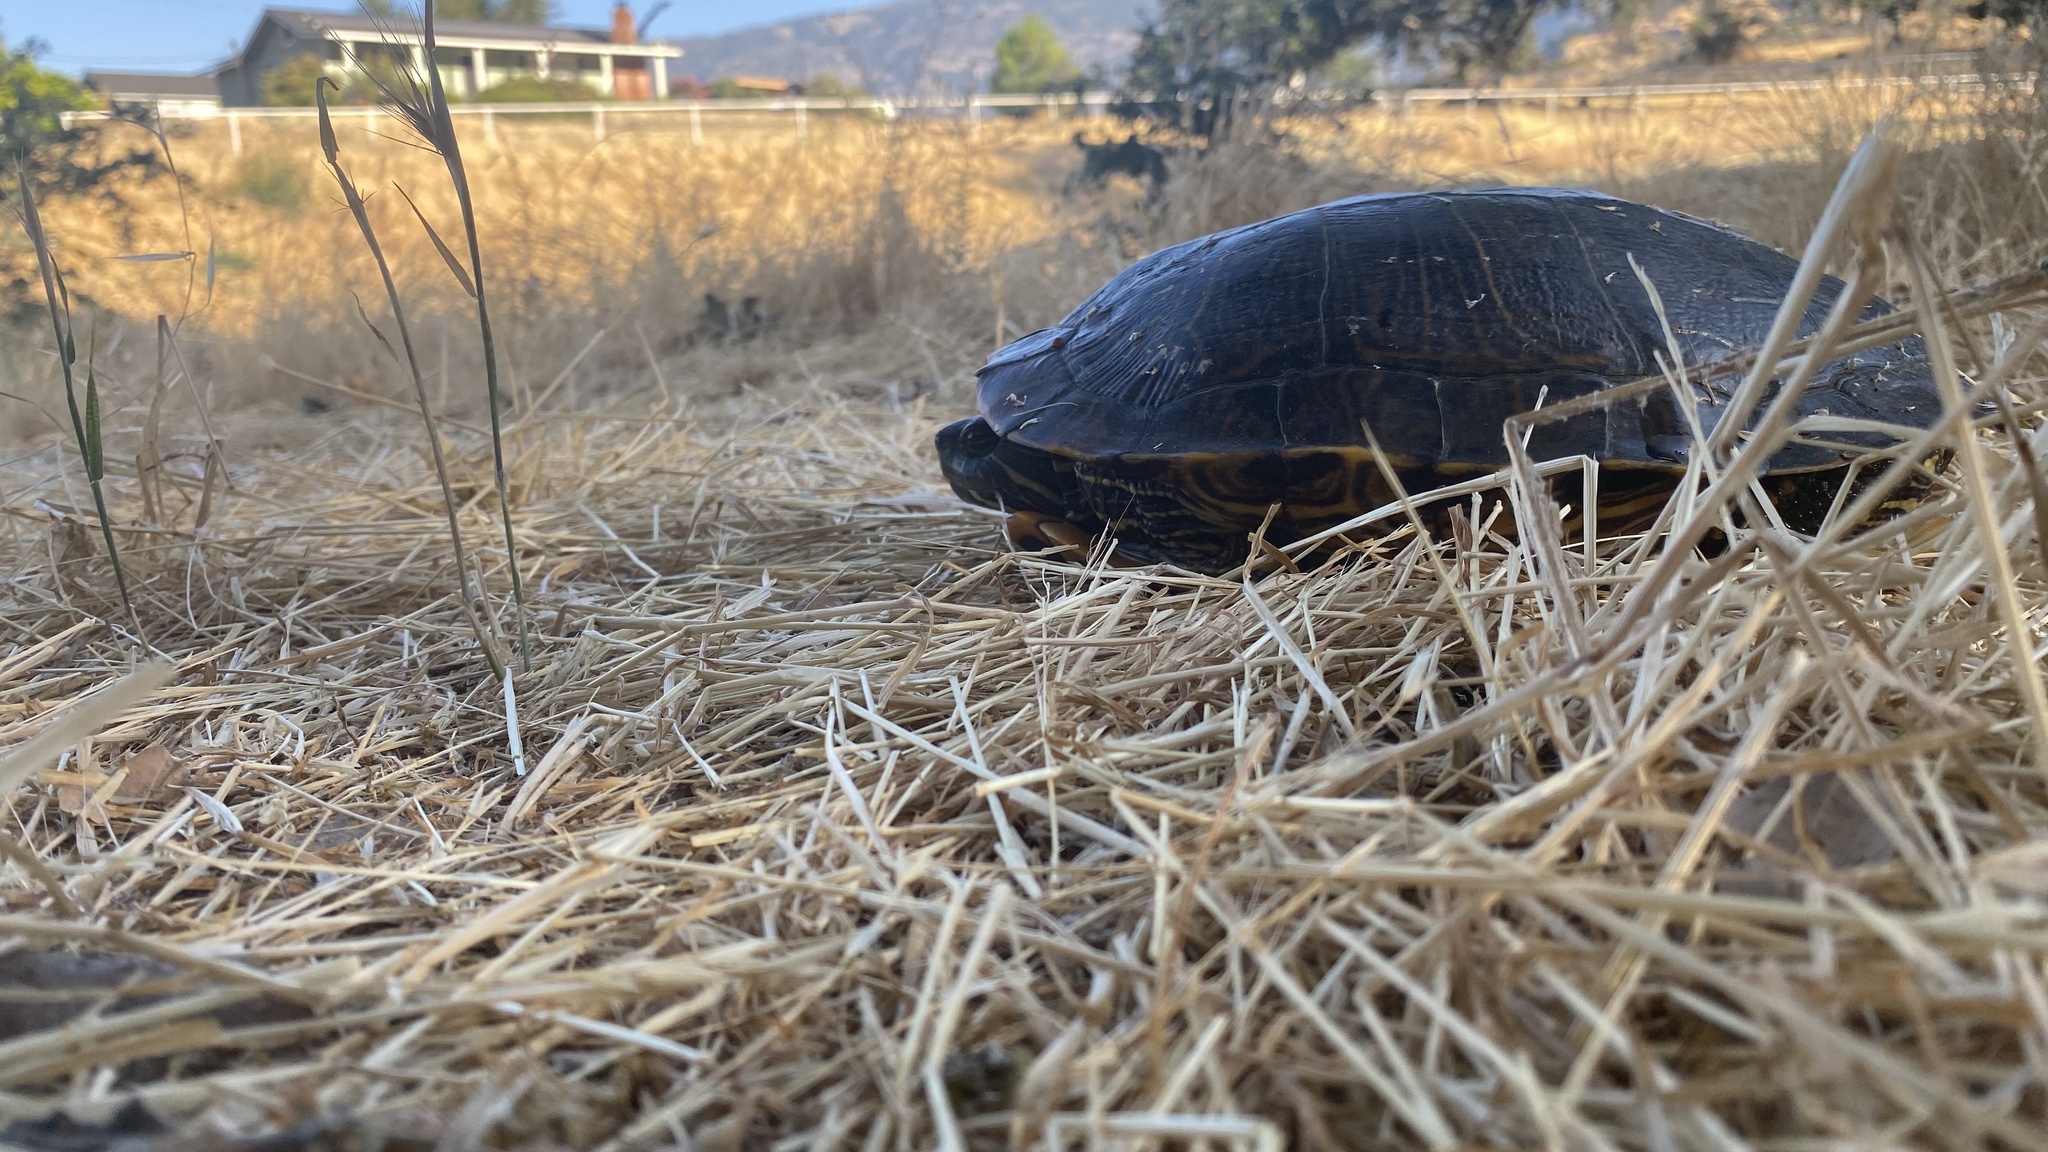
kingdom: Animalia
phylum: Chordata
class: Testudines
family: Emydidae
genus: Trachemys
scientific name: Trachemys scripta
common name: Slider
